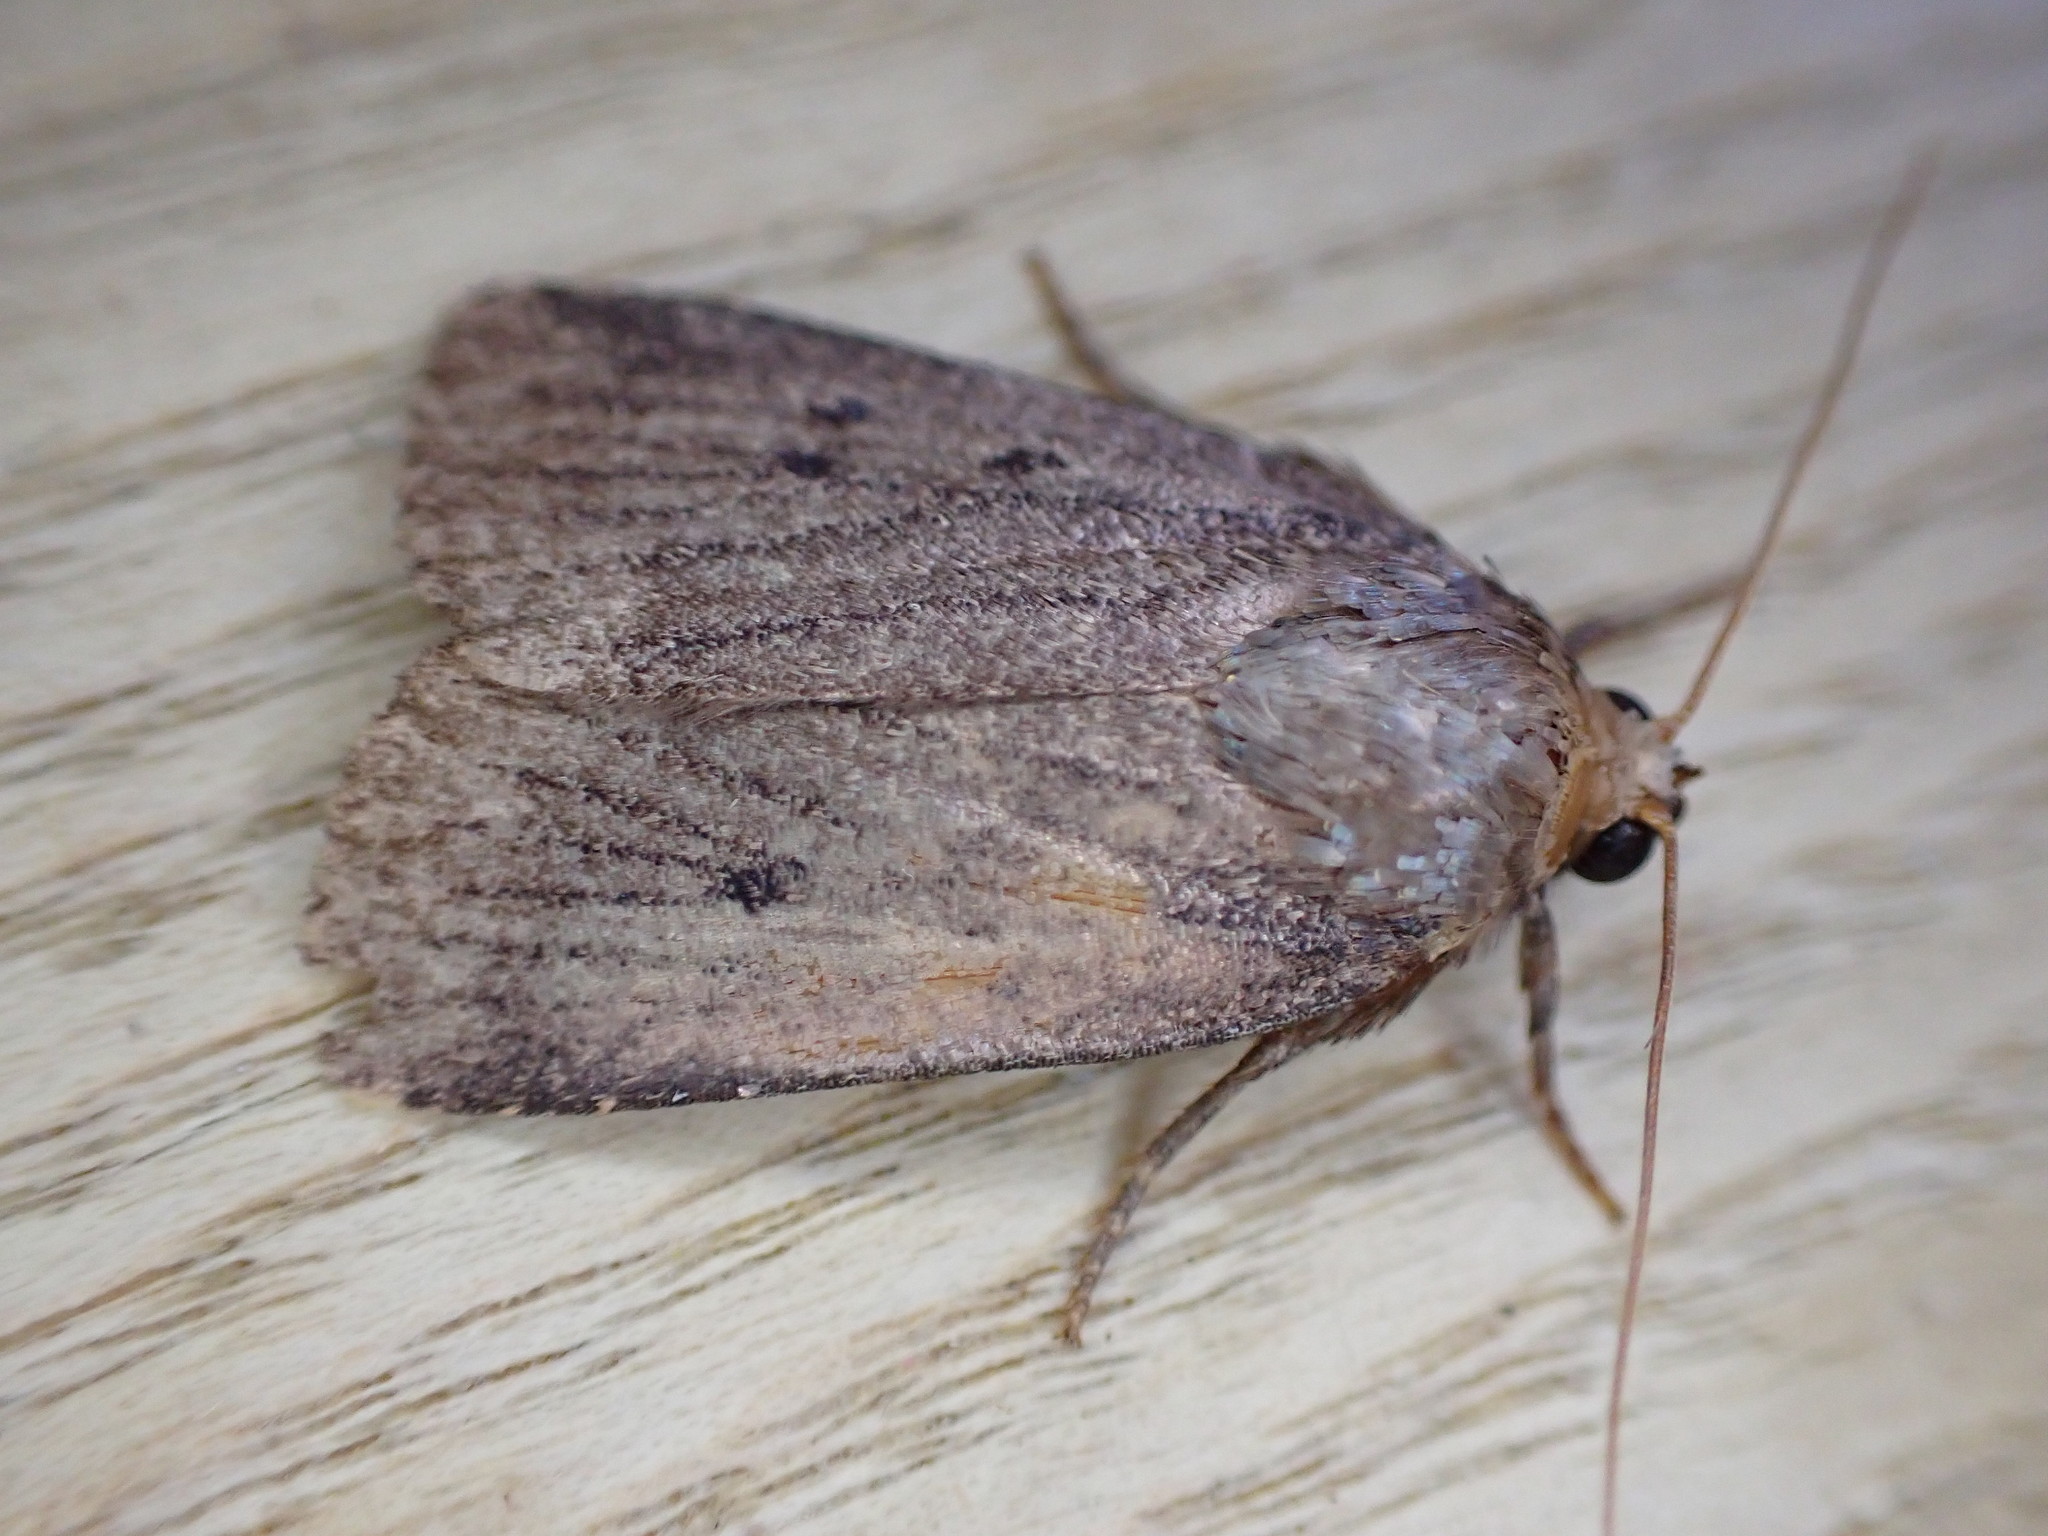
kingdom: Animalia
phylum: Arthropoda
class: Insecta
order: Lepidoptera
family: Noctuidae
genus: Amphipyra
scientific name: Amphipyra tragopoginis
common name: Mouse moth
